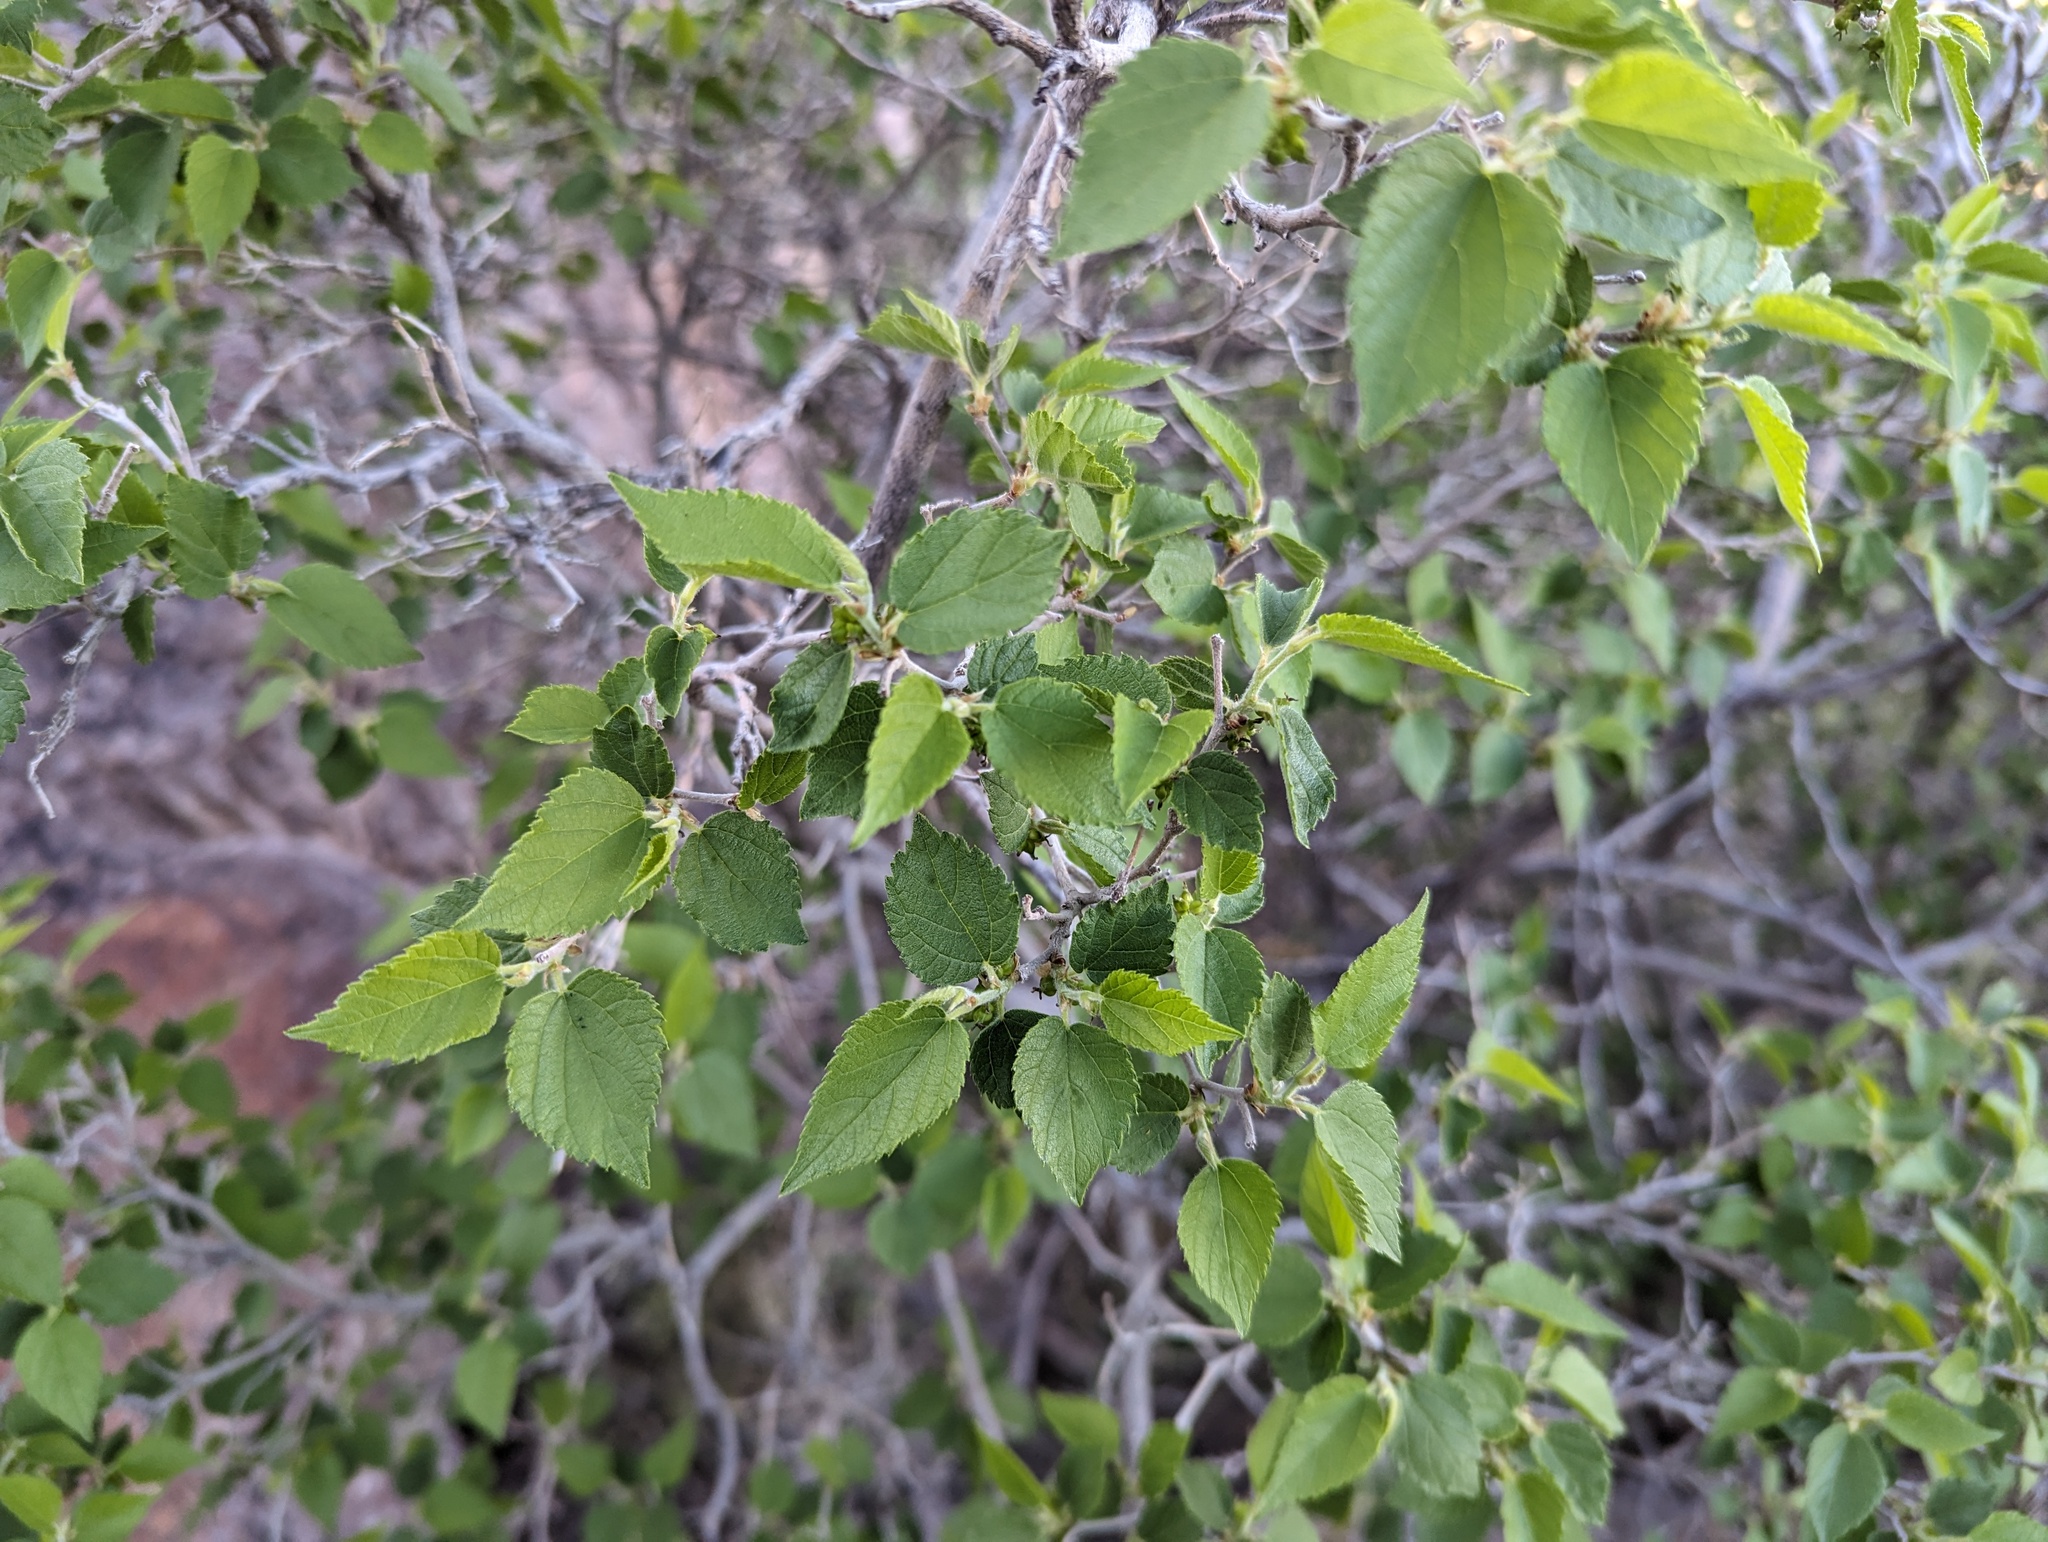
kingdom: Plantae
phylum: Tracheophyta
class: Magnoliopsida
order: Rosales
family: Moraceae
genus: Morus
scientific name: Morus microphylla
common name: Mexican mulberry
